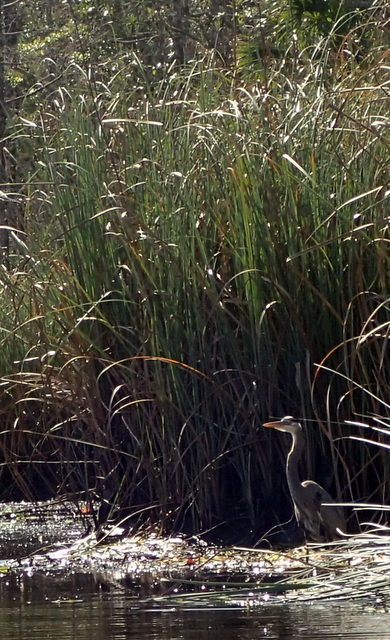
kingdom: Animalia
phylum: Chordata
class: Aves
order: Pelecaniformes
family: Ardeidae
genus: Ardea
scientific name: Ardea herodias
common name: Great blue heron
